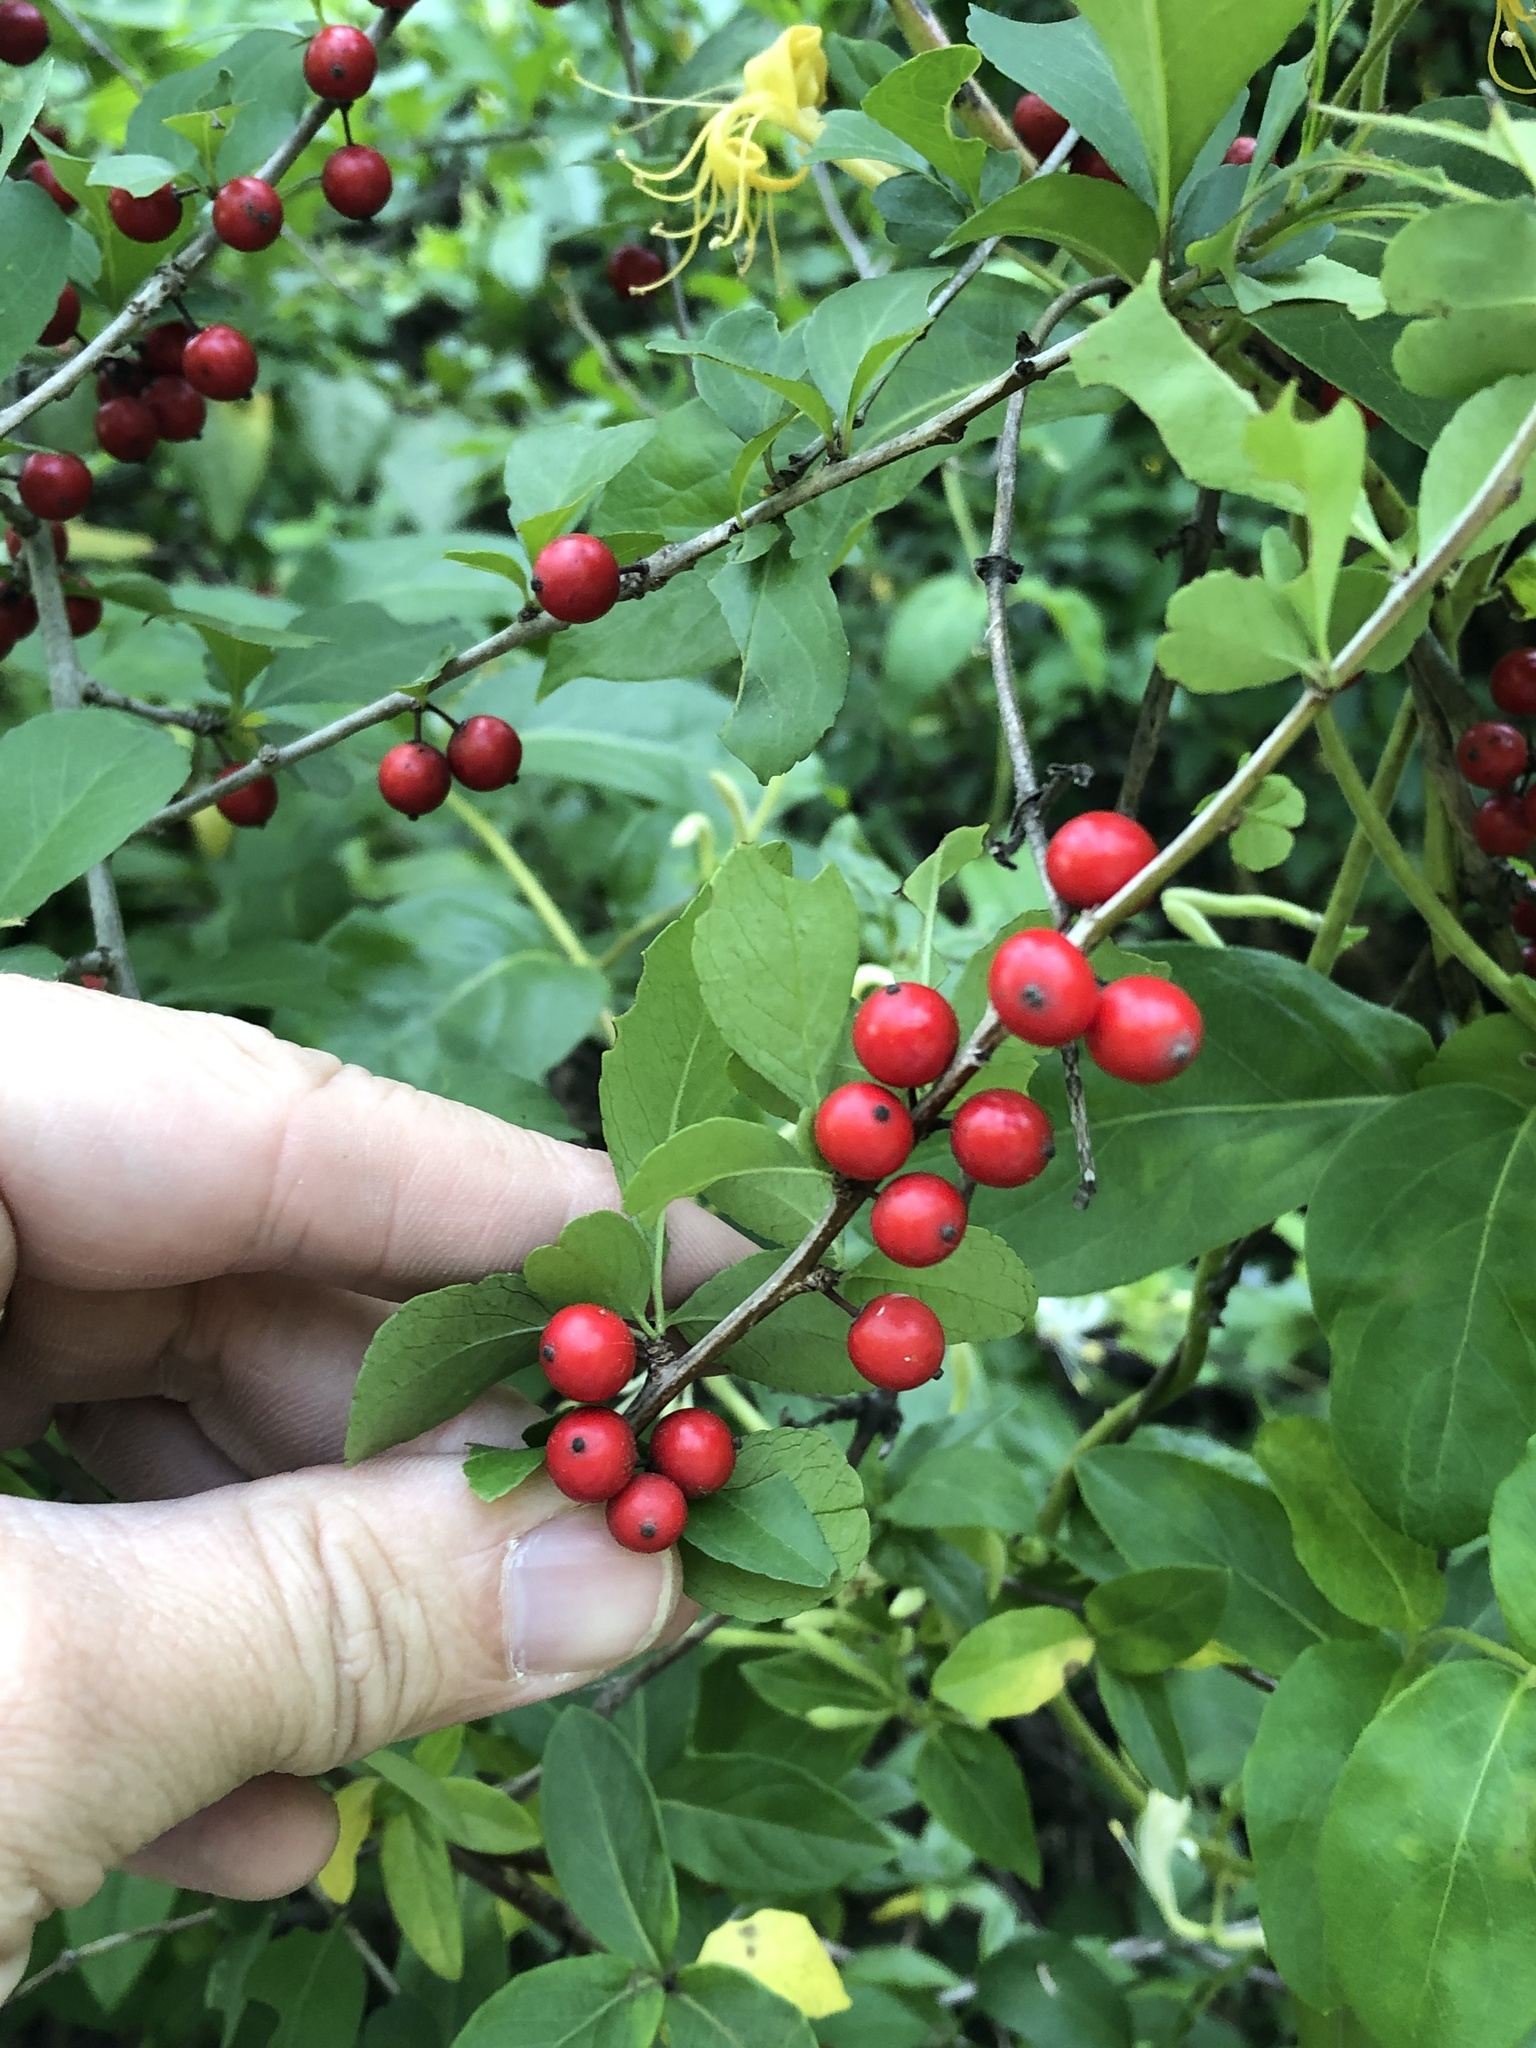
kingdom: Plantae
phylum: Tracheophyta
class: Magnoliopsida
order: Aquifoliales
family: Aquifoliaceae
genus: Ilex
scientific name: Ilex decidua
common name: Possum-haw
